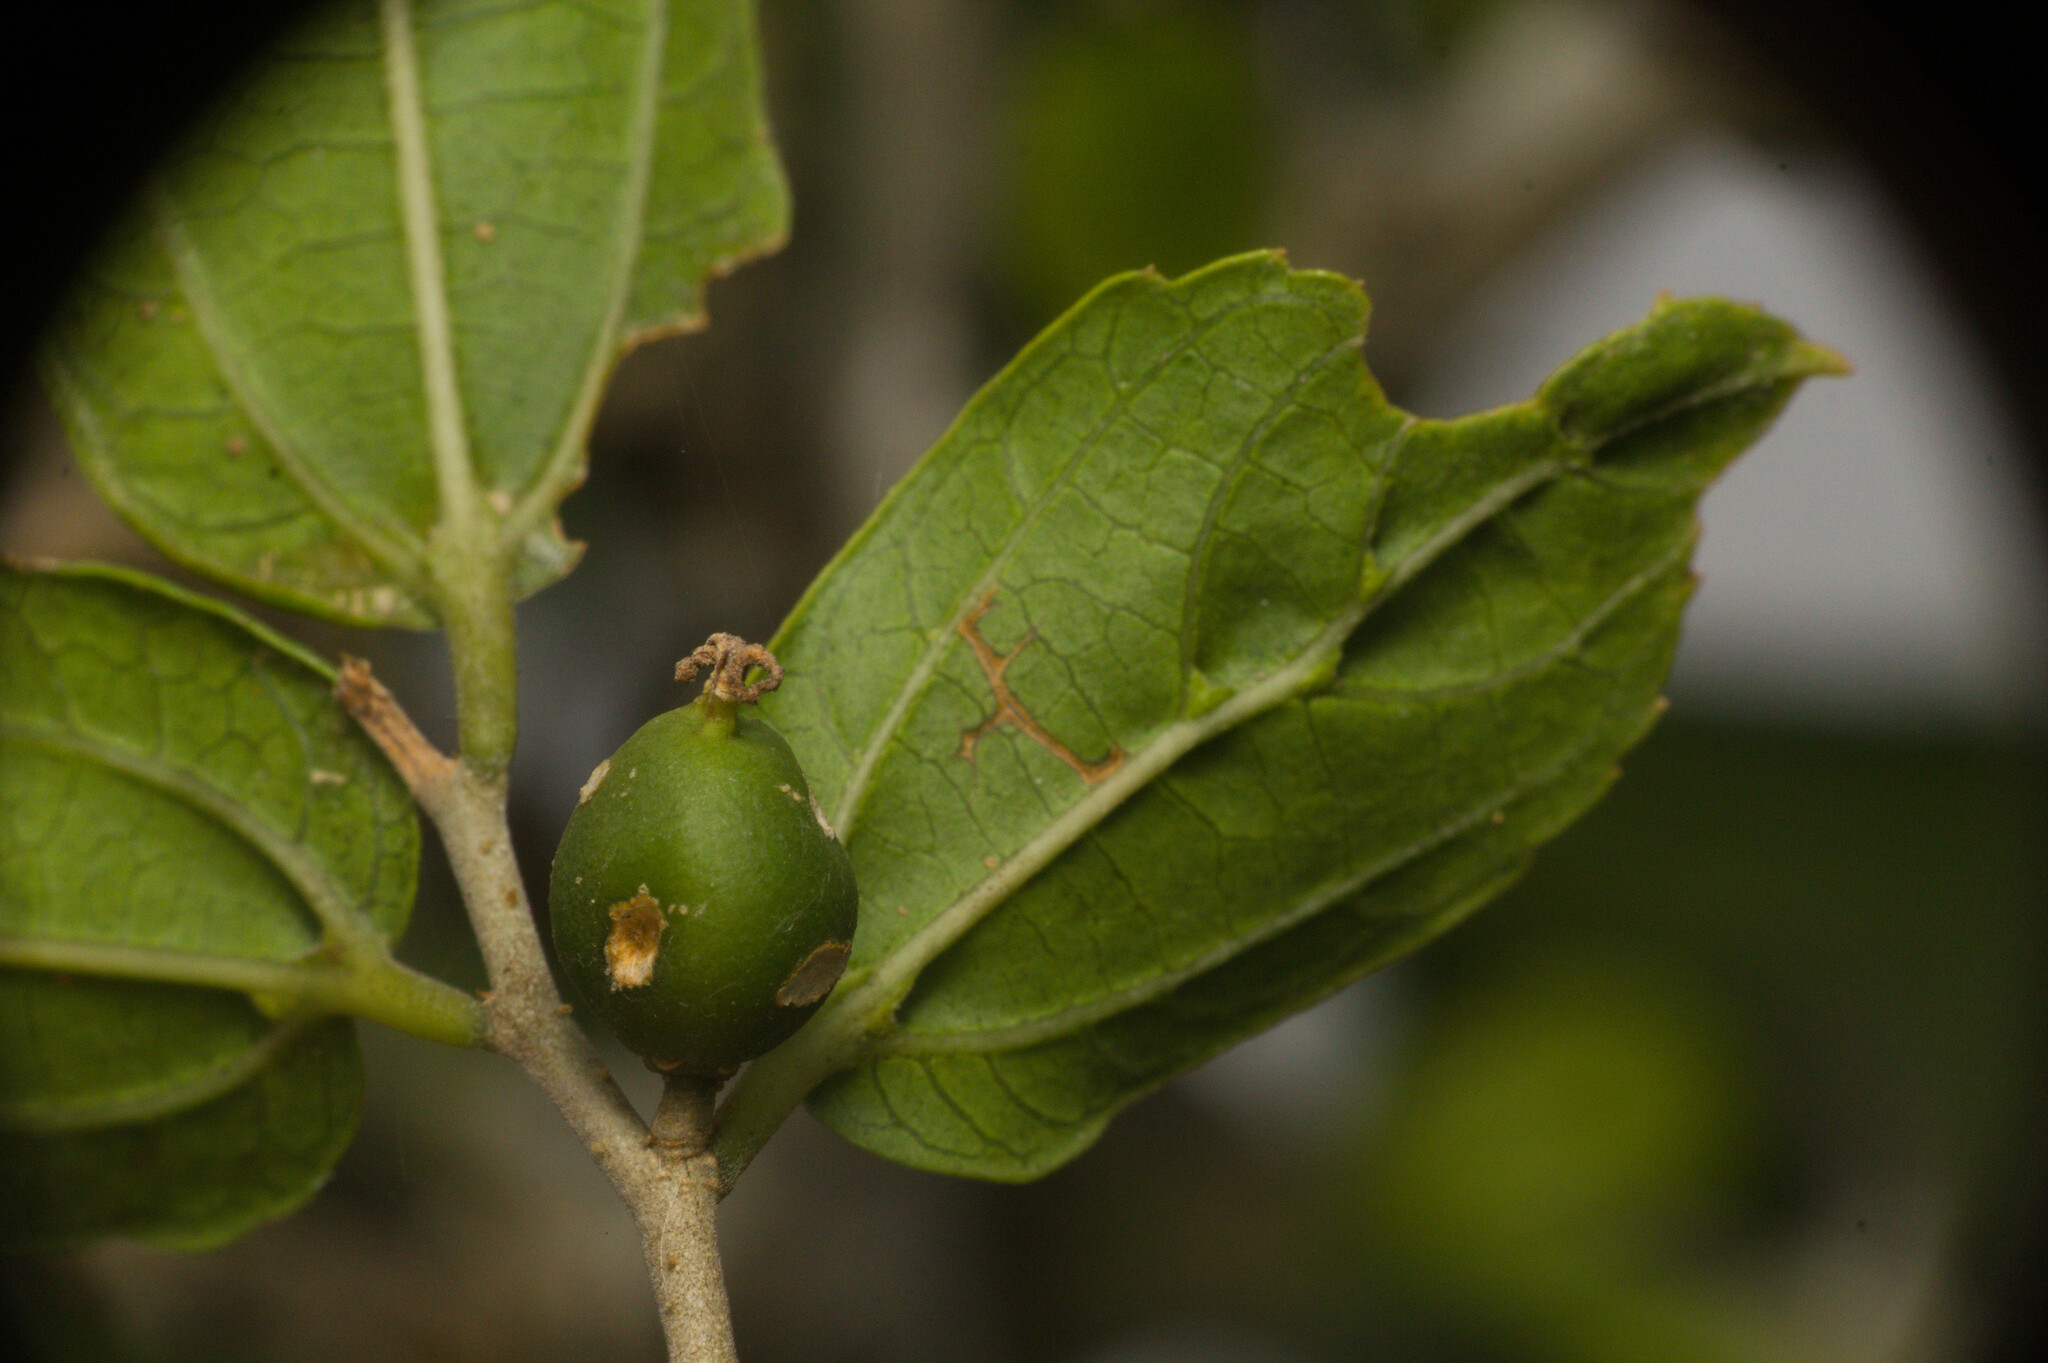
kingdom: Plantae
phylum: Tracheophyta
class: Magnoliopsida
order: Rosales
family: Cannabaceae
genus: Celtis
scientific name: Celtis spinosa
